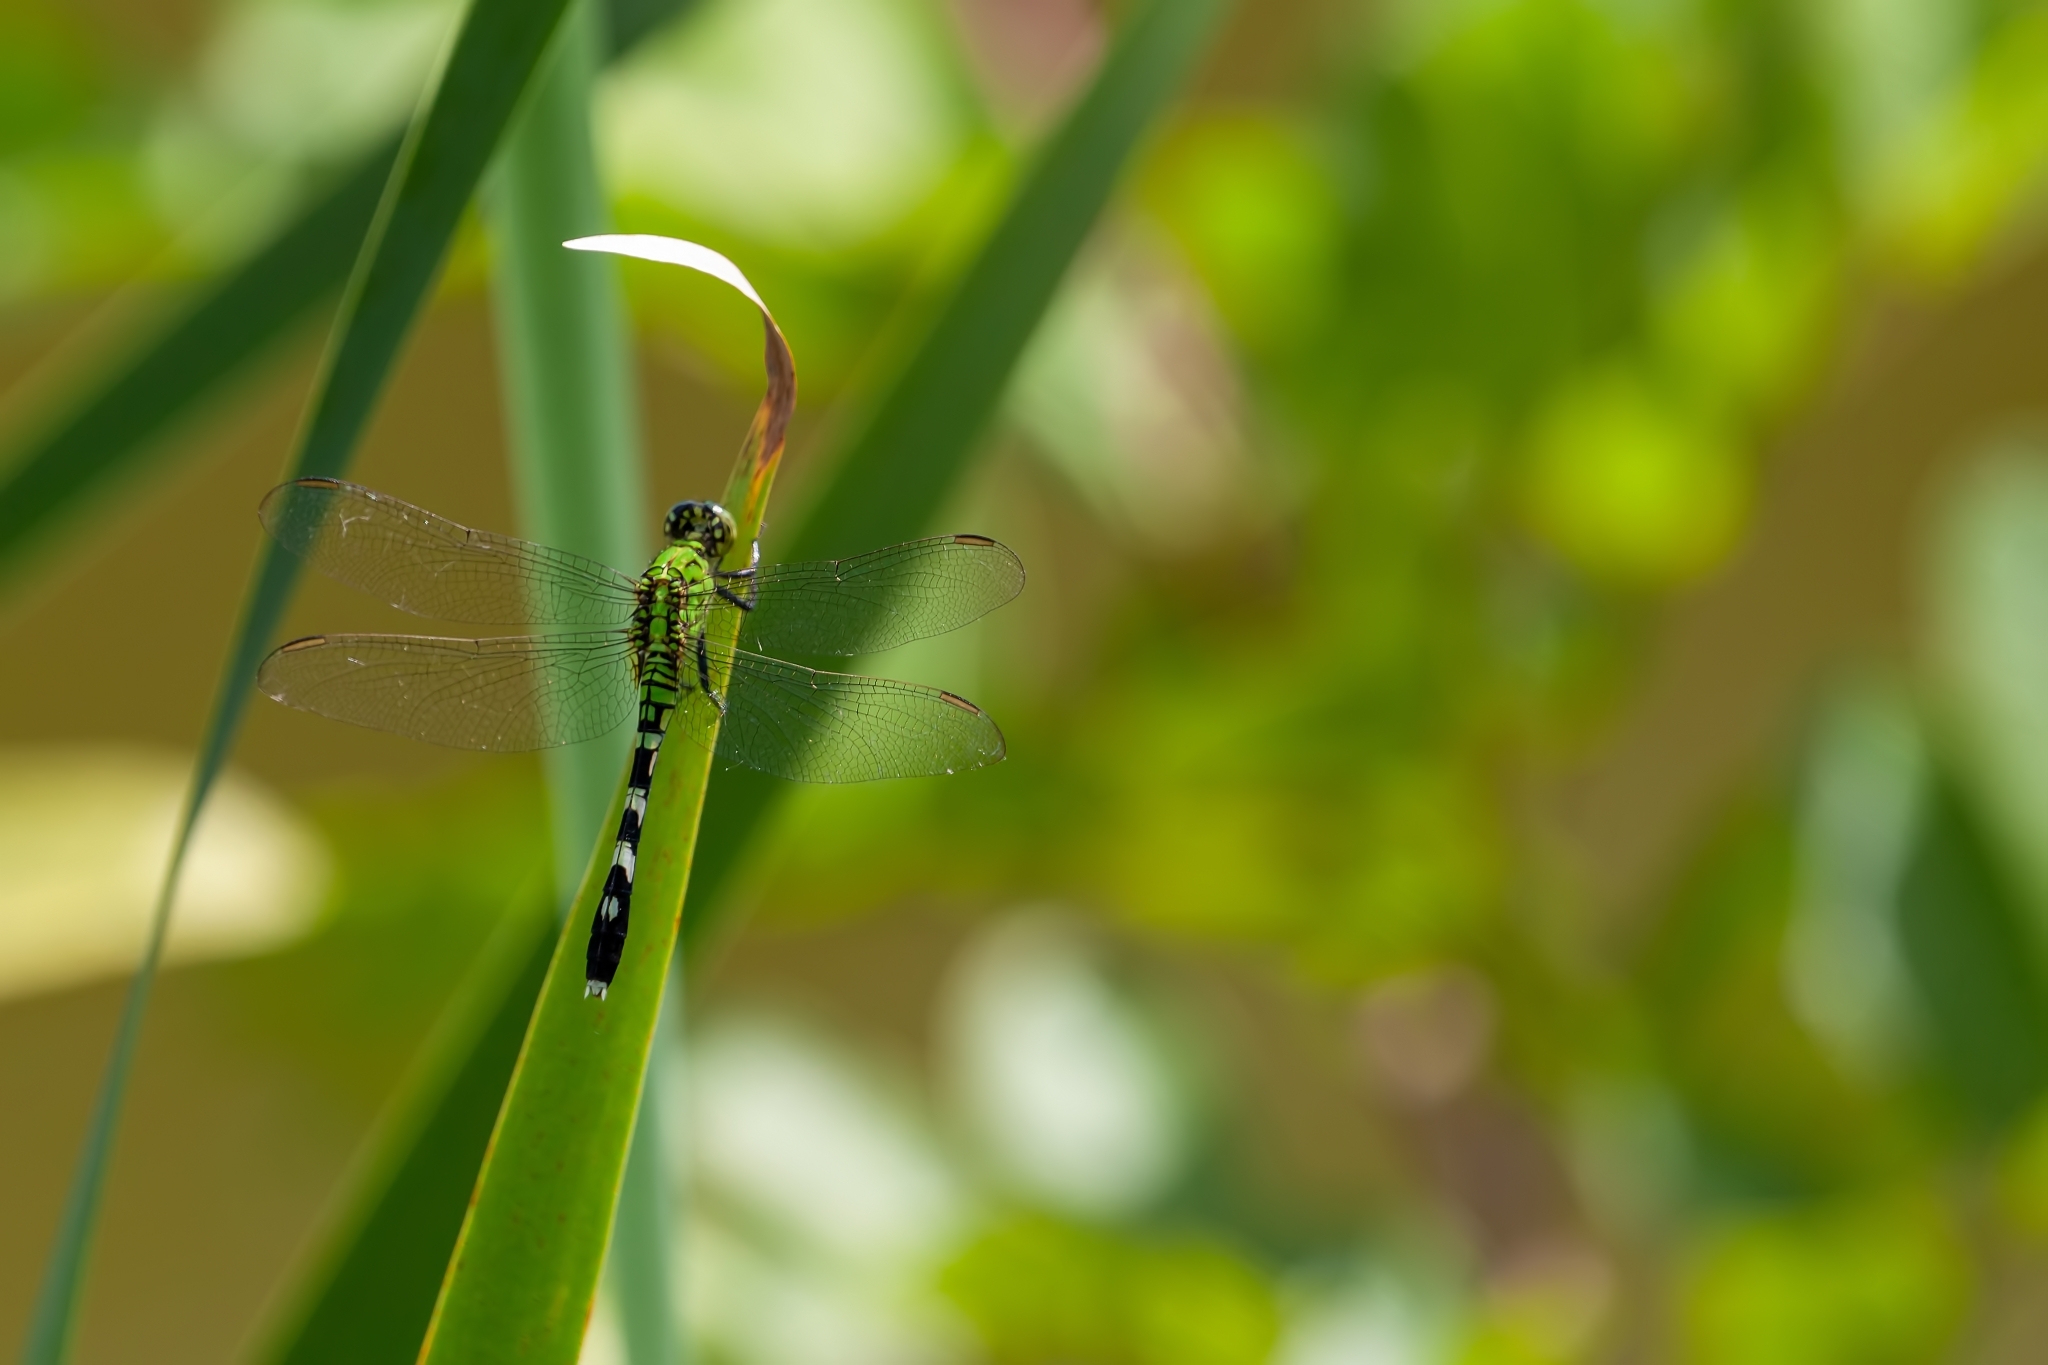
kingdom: Animalia
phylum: Arthropoda
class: Insecta
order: Odonata
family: Libellulidae
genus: Erythemis
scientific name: Erythemis simplicicollis
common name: Eastern pondhawk
